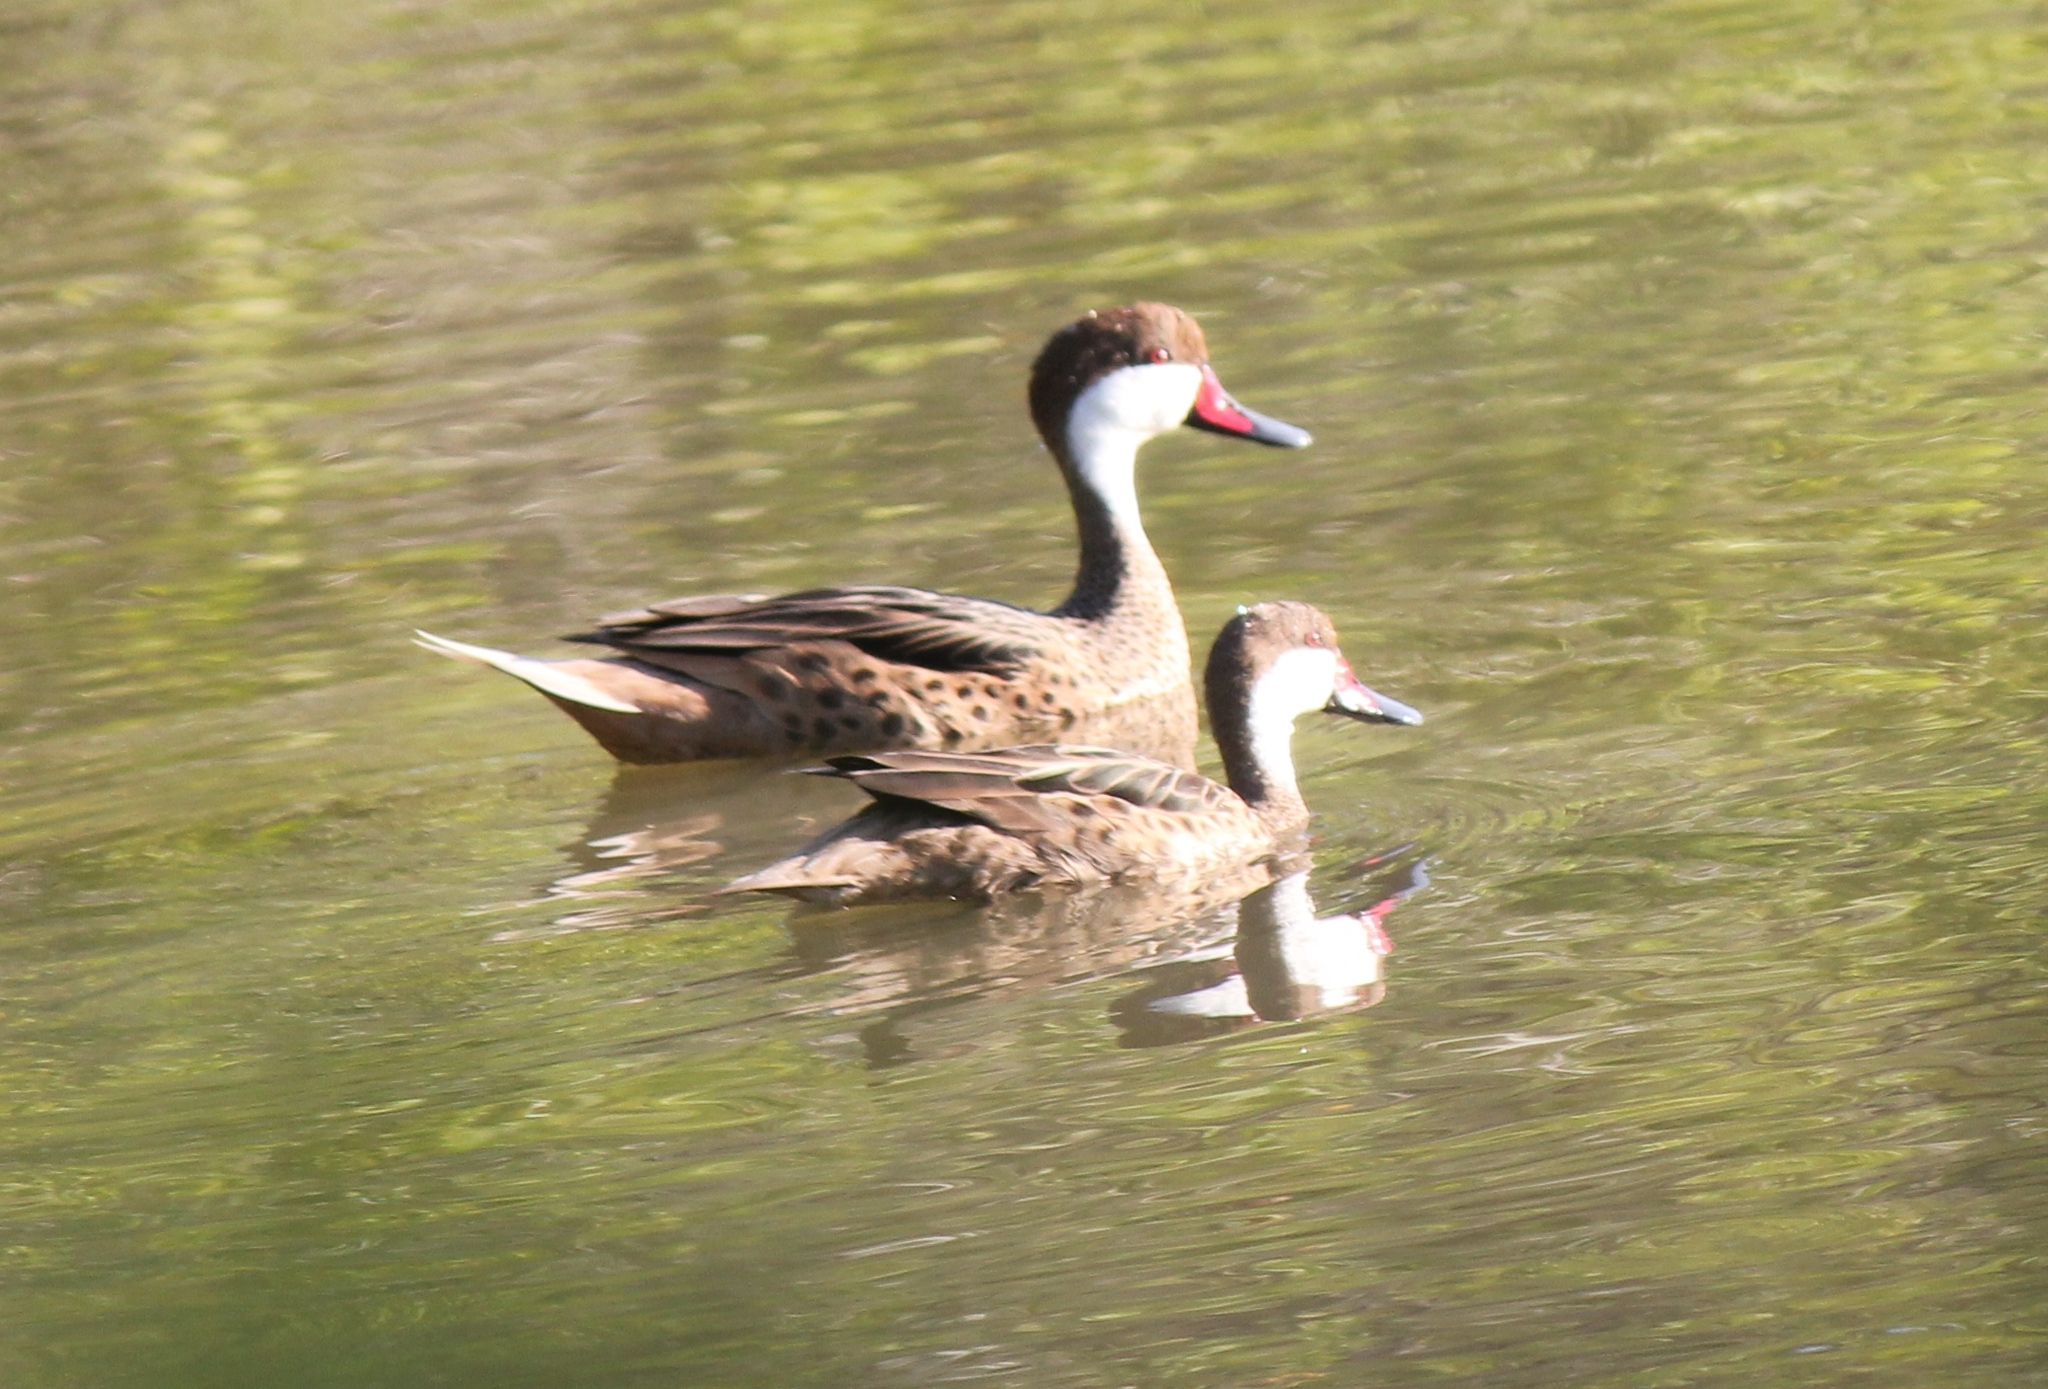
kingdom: Animalia
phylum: Chordata
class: Aves
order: Anseriformes
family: Anatidae
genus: Anas
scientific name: Anas bahamensis
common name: White-cheeked pintail
